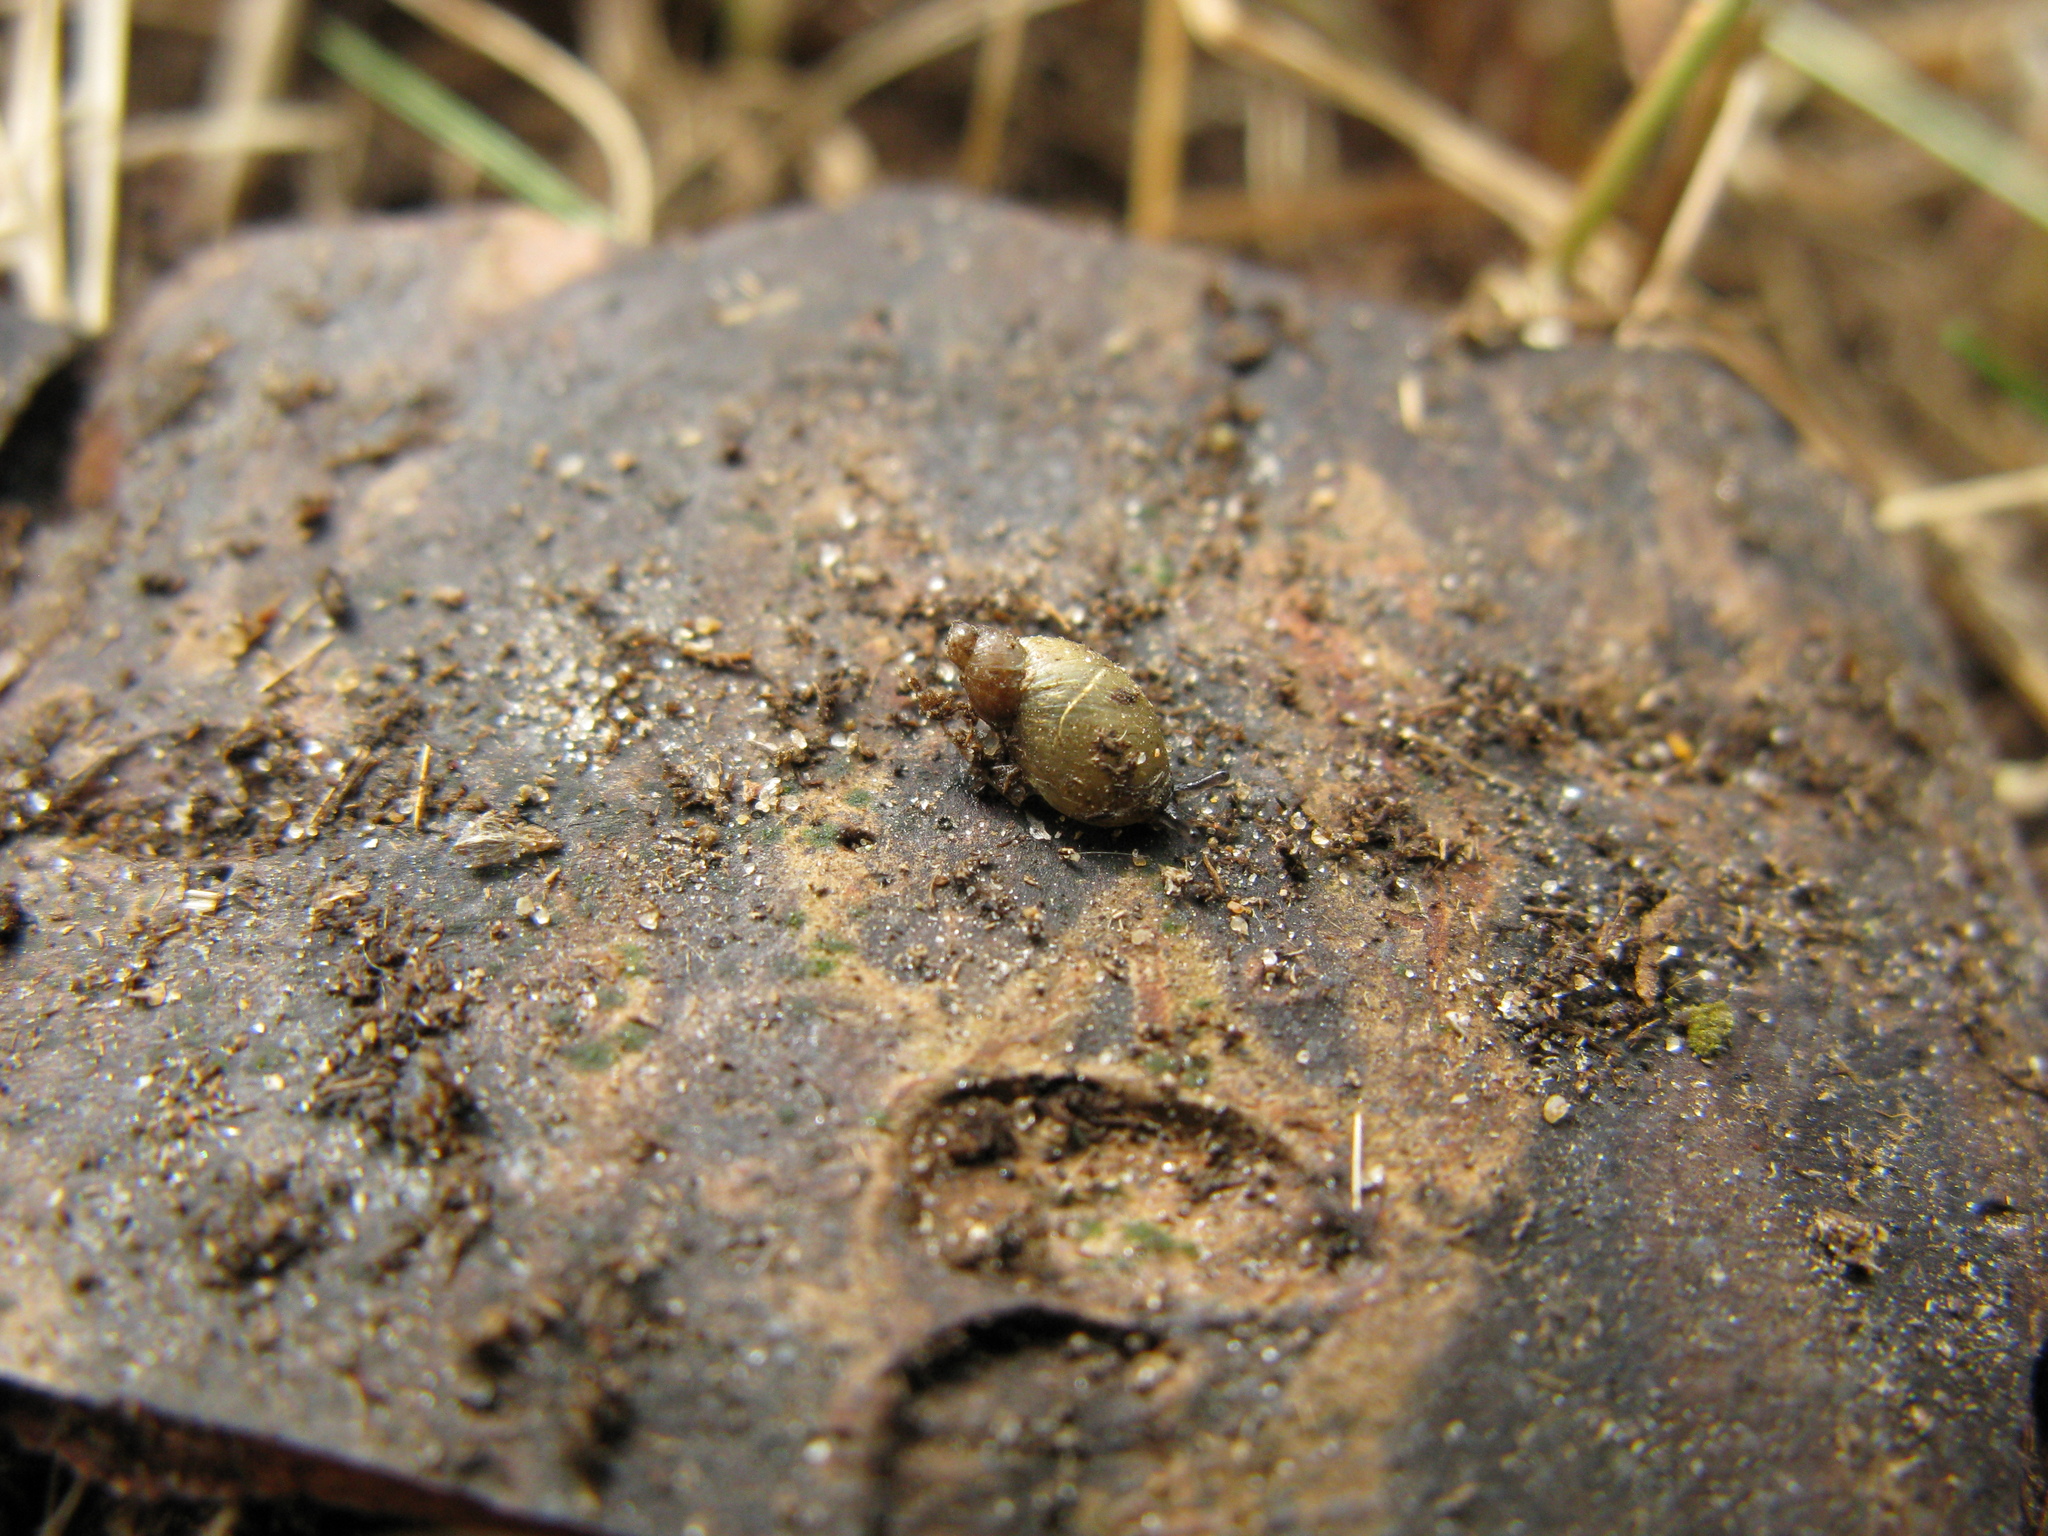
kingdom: Animalia
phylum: Mollusca
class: Gastropoda
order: Stylommatophora
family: Succineidae
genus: Succinella
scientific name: Succinella oblonga
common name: Small amber snail
